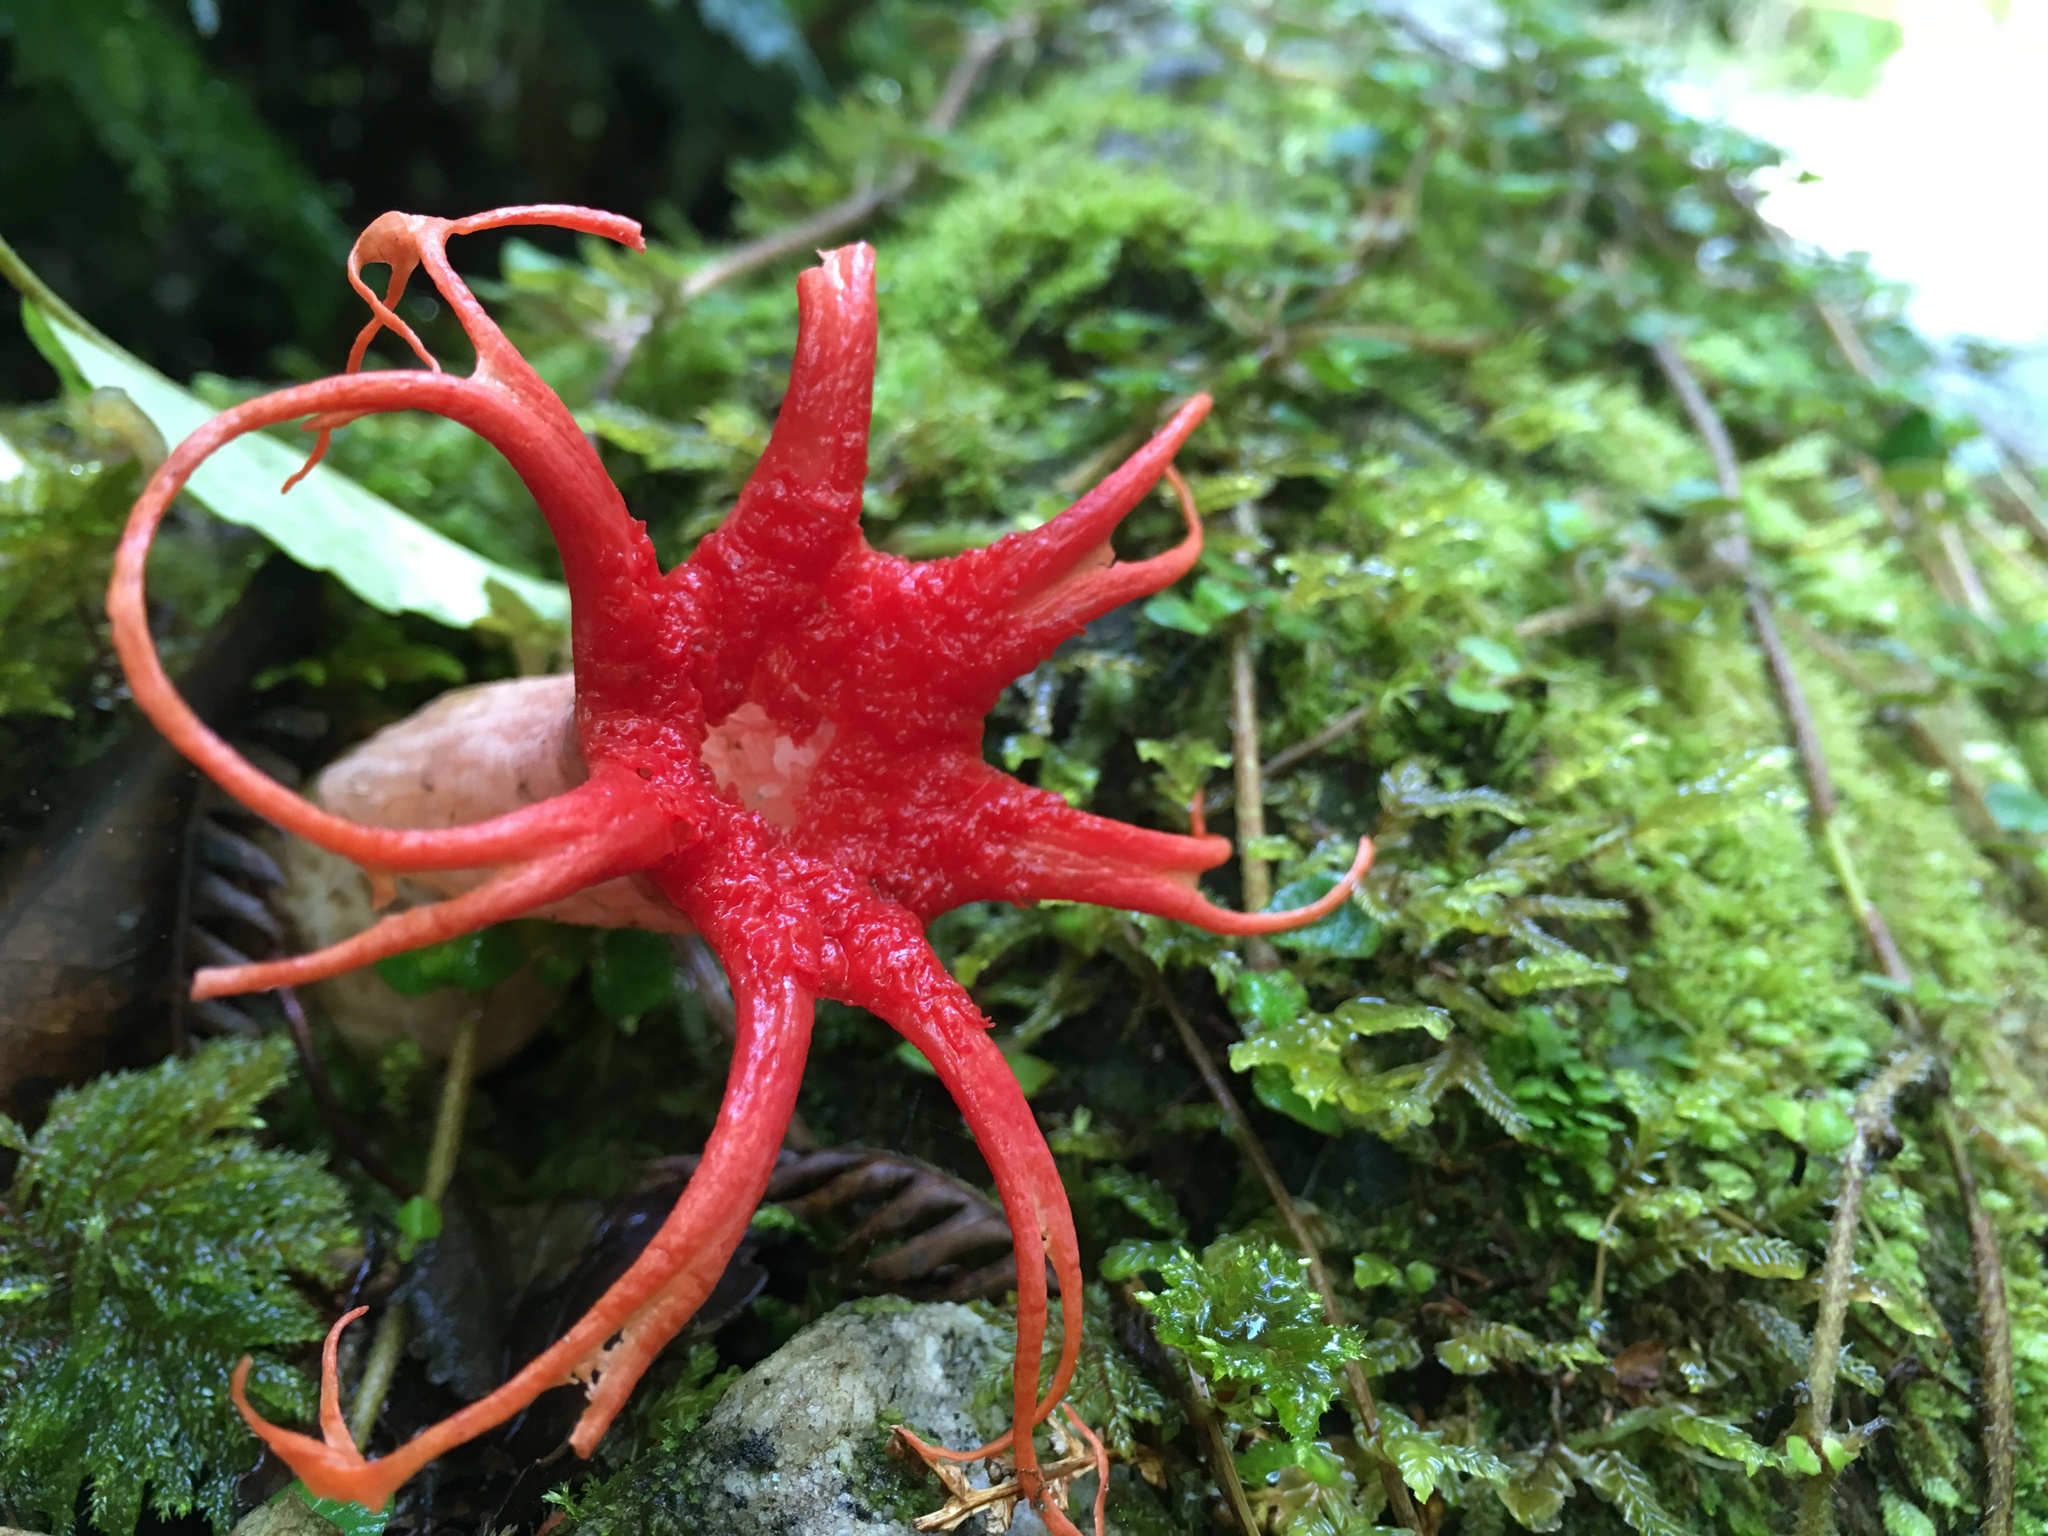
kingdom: Fungi
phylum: Basidiomycota
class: Agaricomycetes
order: Phallales
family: Phallaceae
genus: Aseroe
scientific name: Aseroe rubra
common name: Starfish fungus
